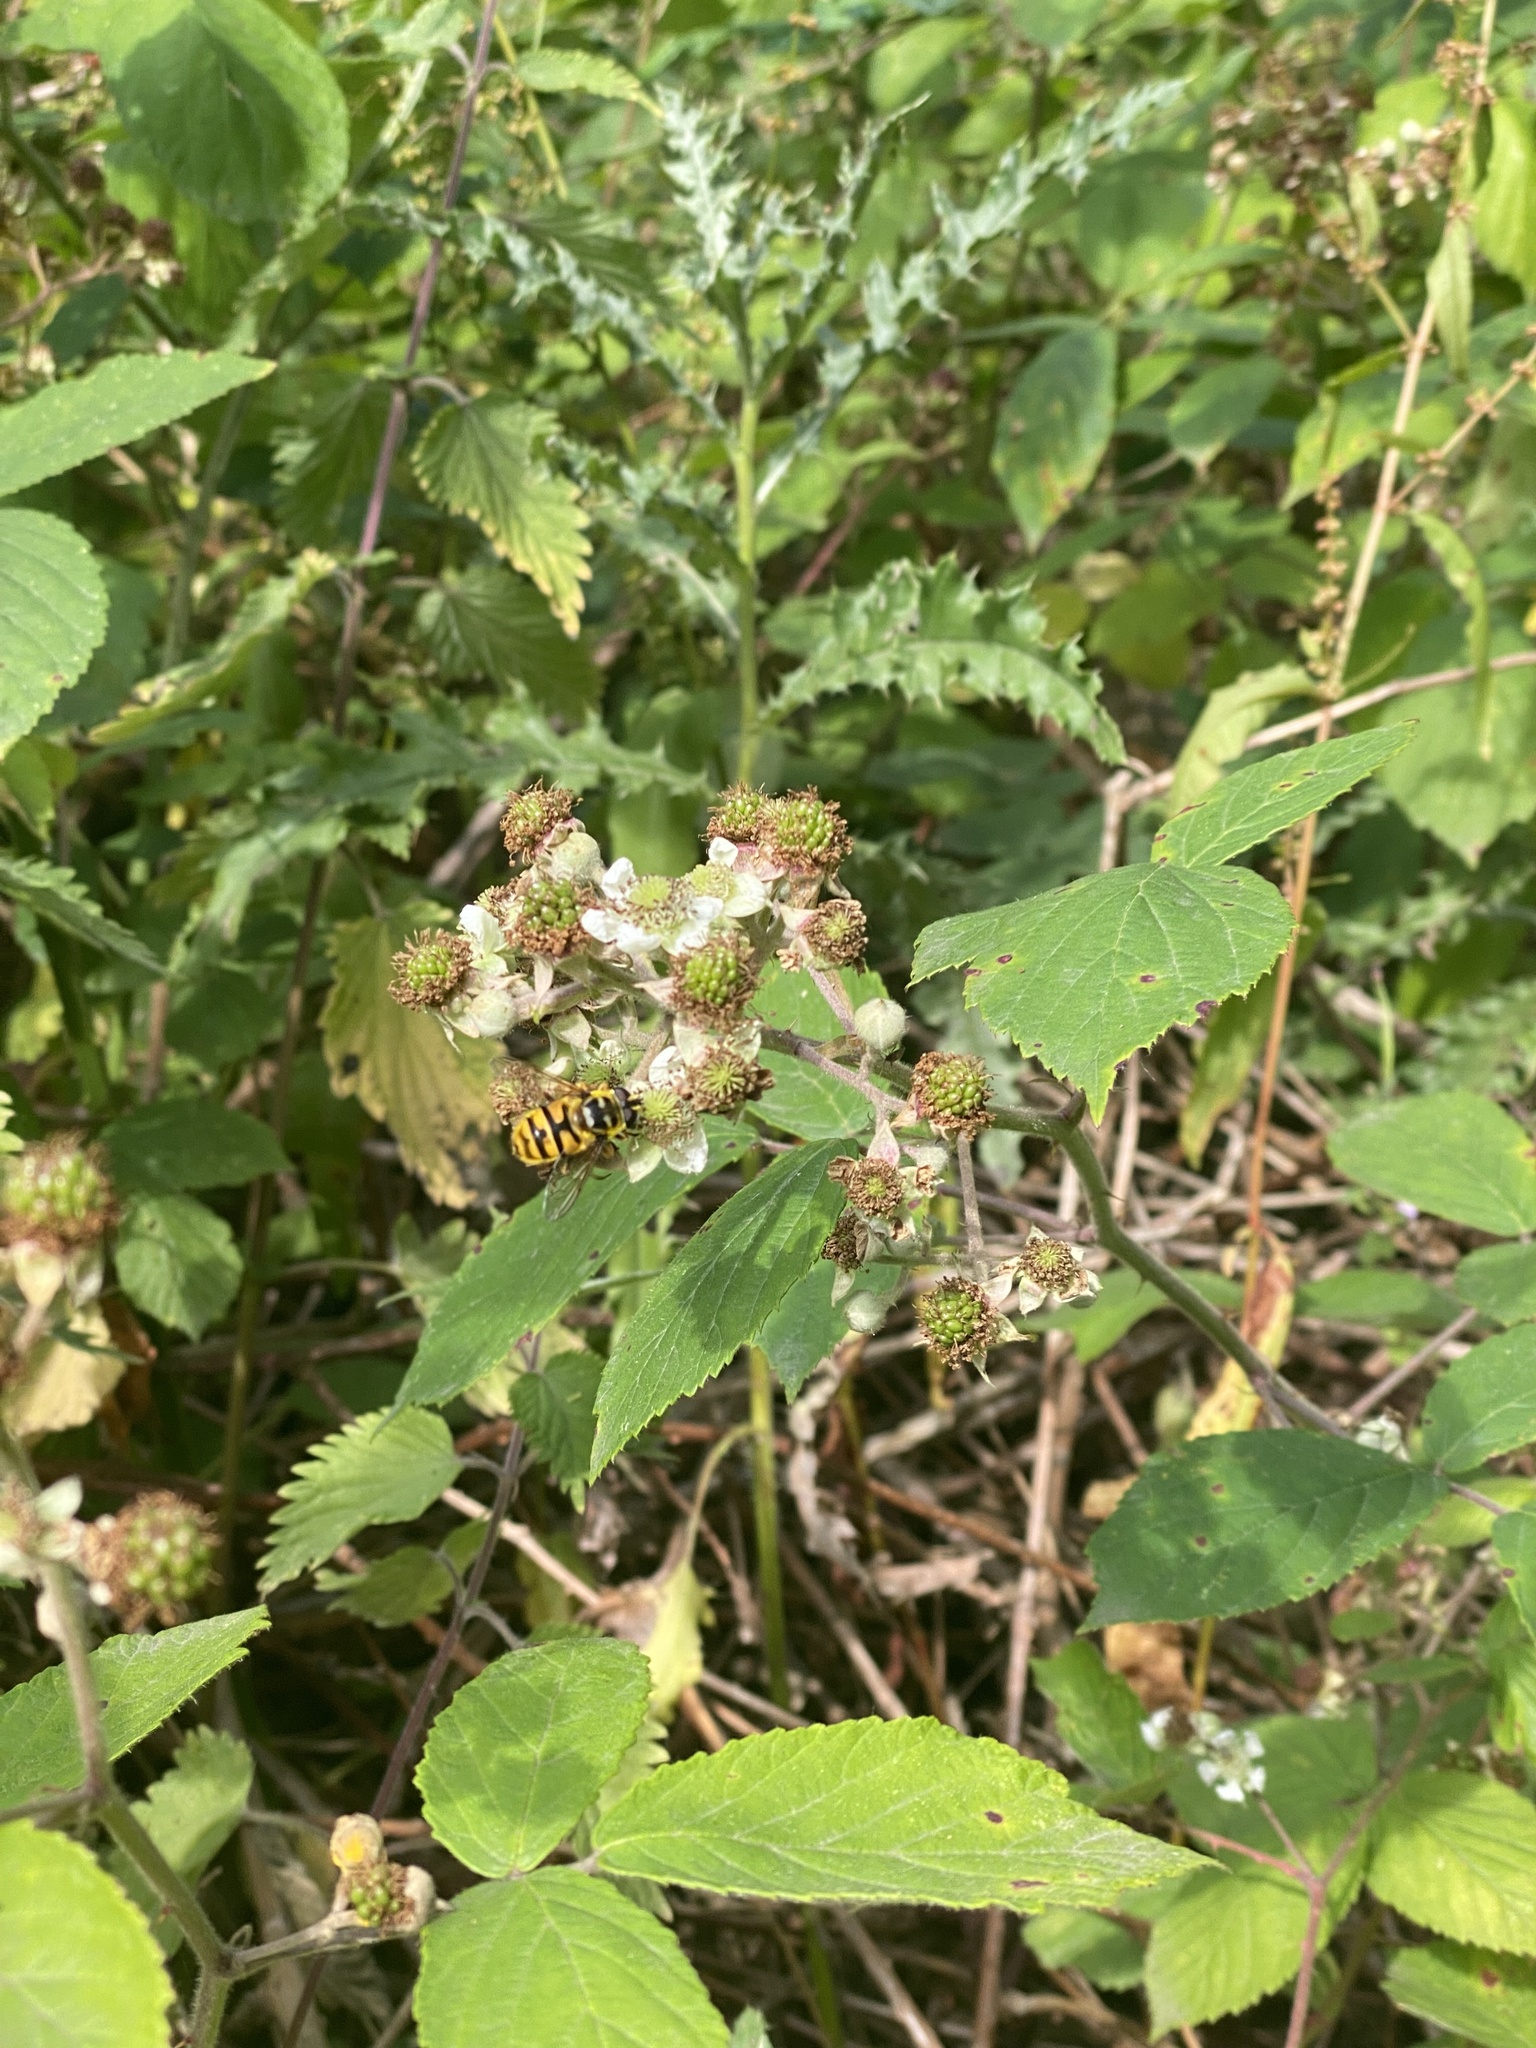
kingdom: Animalia
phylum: Arthropoda
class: Insecta
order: Diptera
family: Syrphidae
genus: Myathropa
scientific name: Myathropa florea
